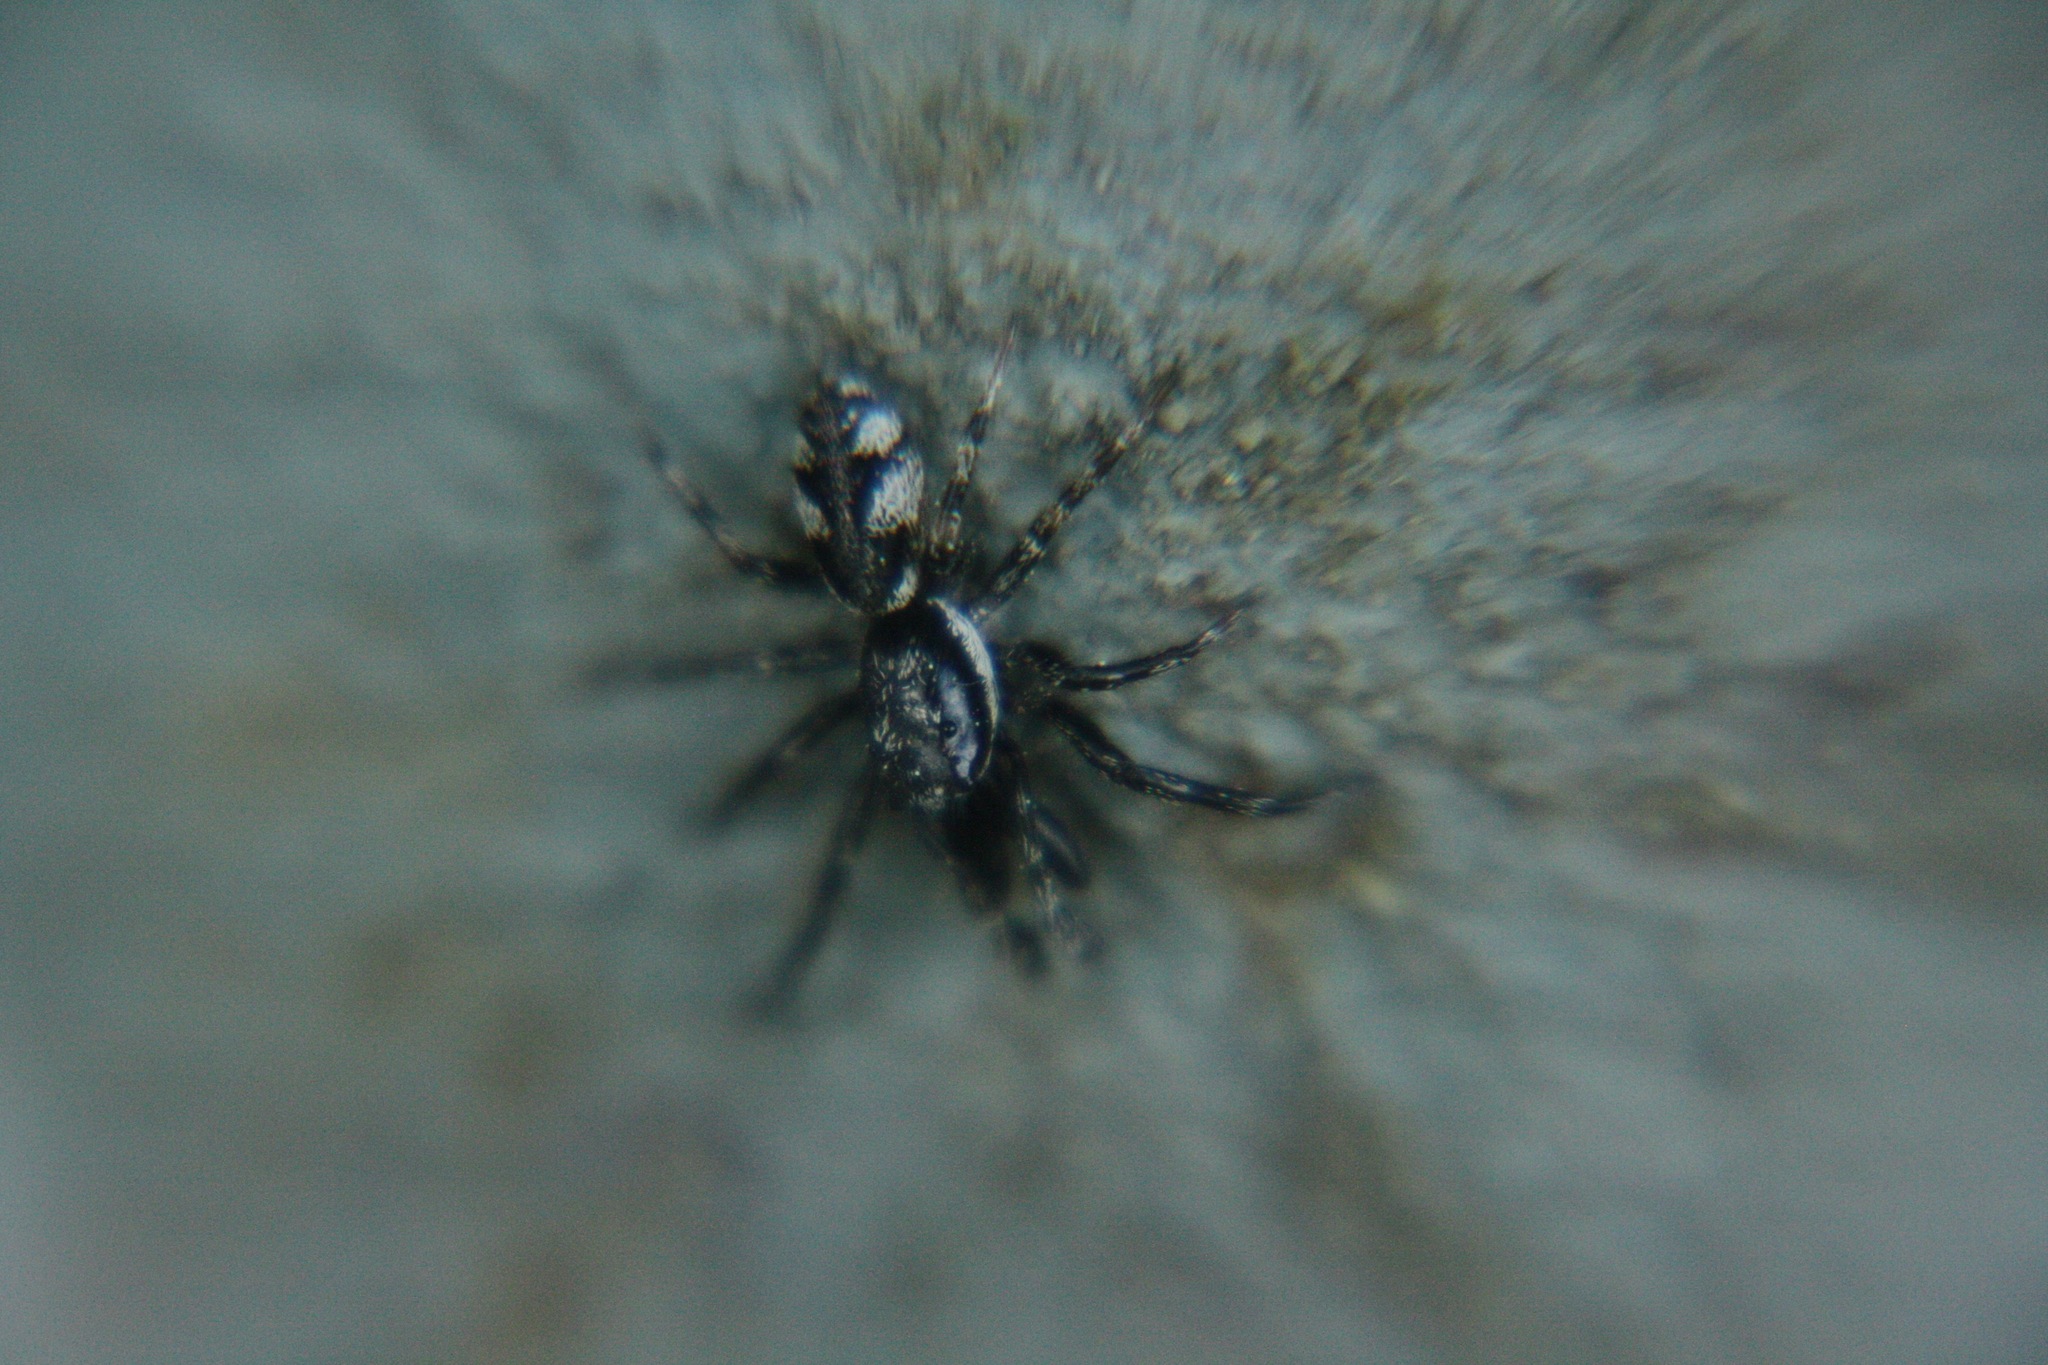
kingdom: Animalia
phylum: Arthropoda
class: Arachnida
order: Araneae
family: Salticidae
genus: Salticus
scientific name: Salticus cingulatus
